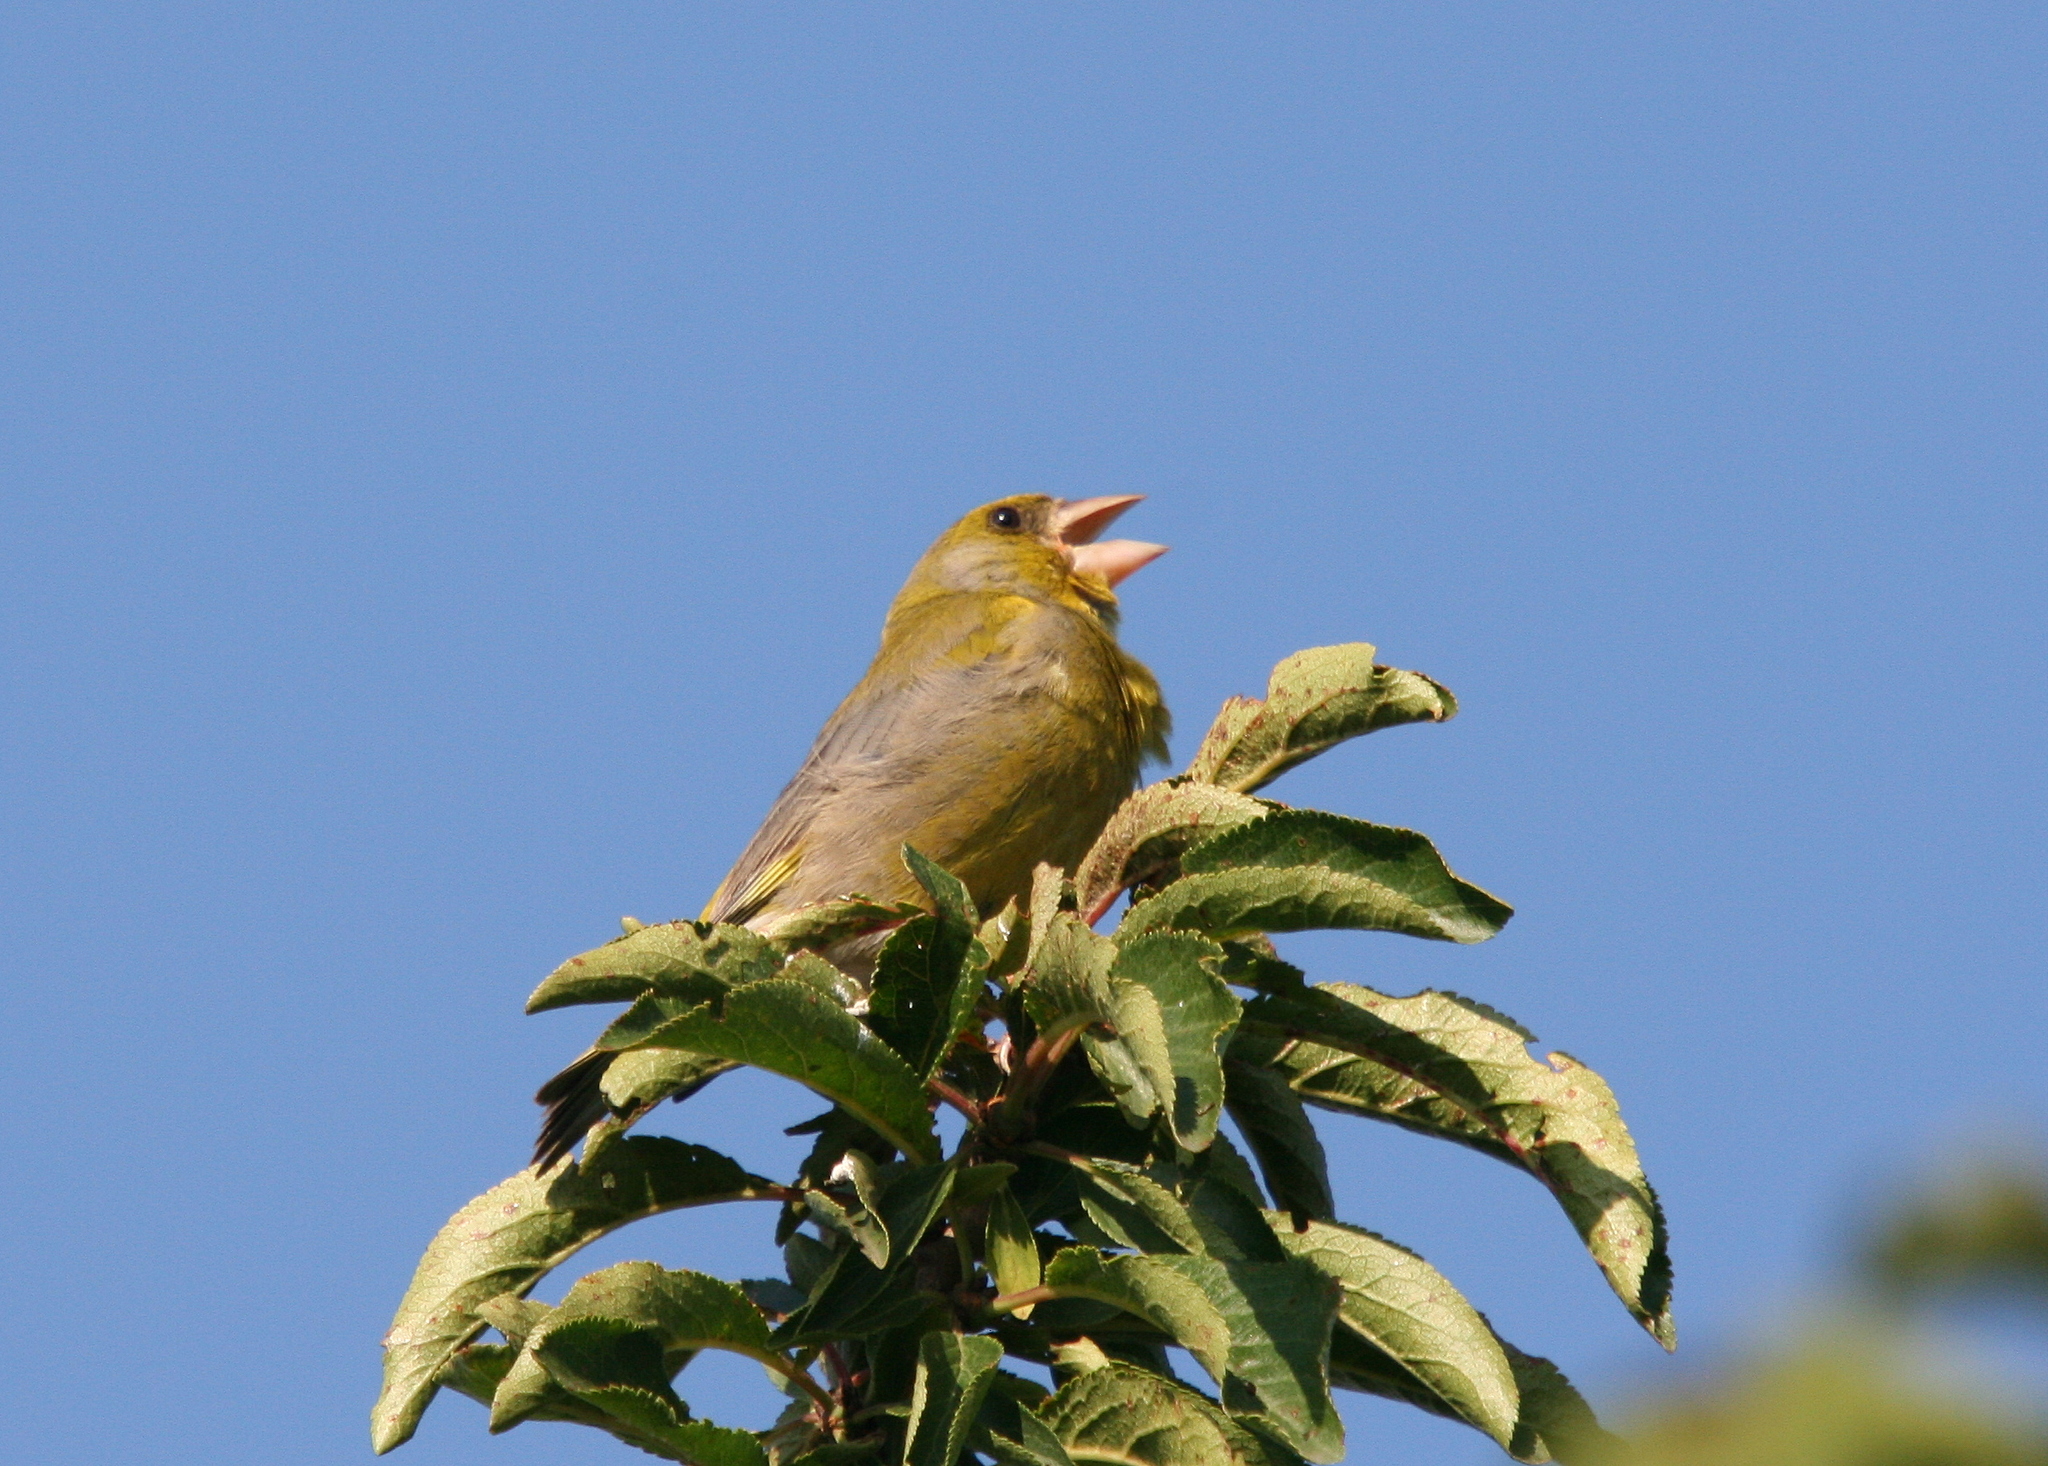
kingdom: Plantae
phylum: Tracheophyta
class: Liliopsida
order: Poales
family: Poaceae
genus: Chloris
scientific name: Chloris chloris
